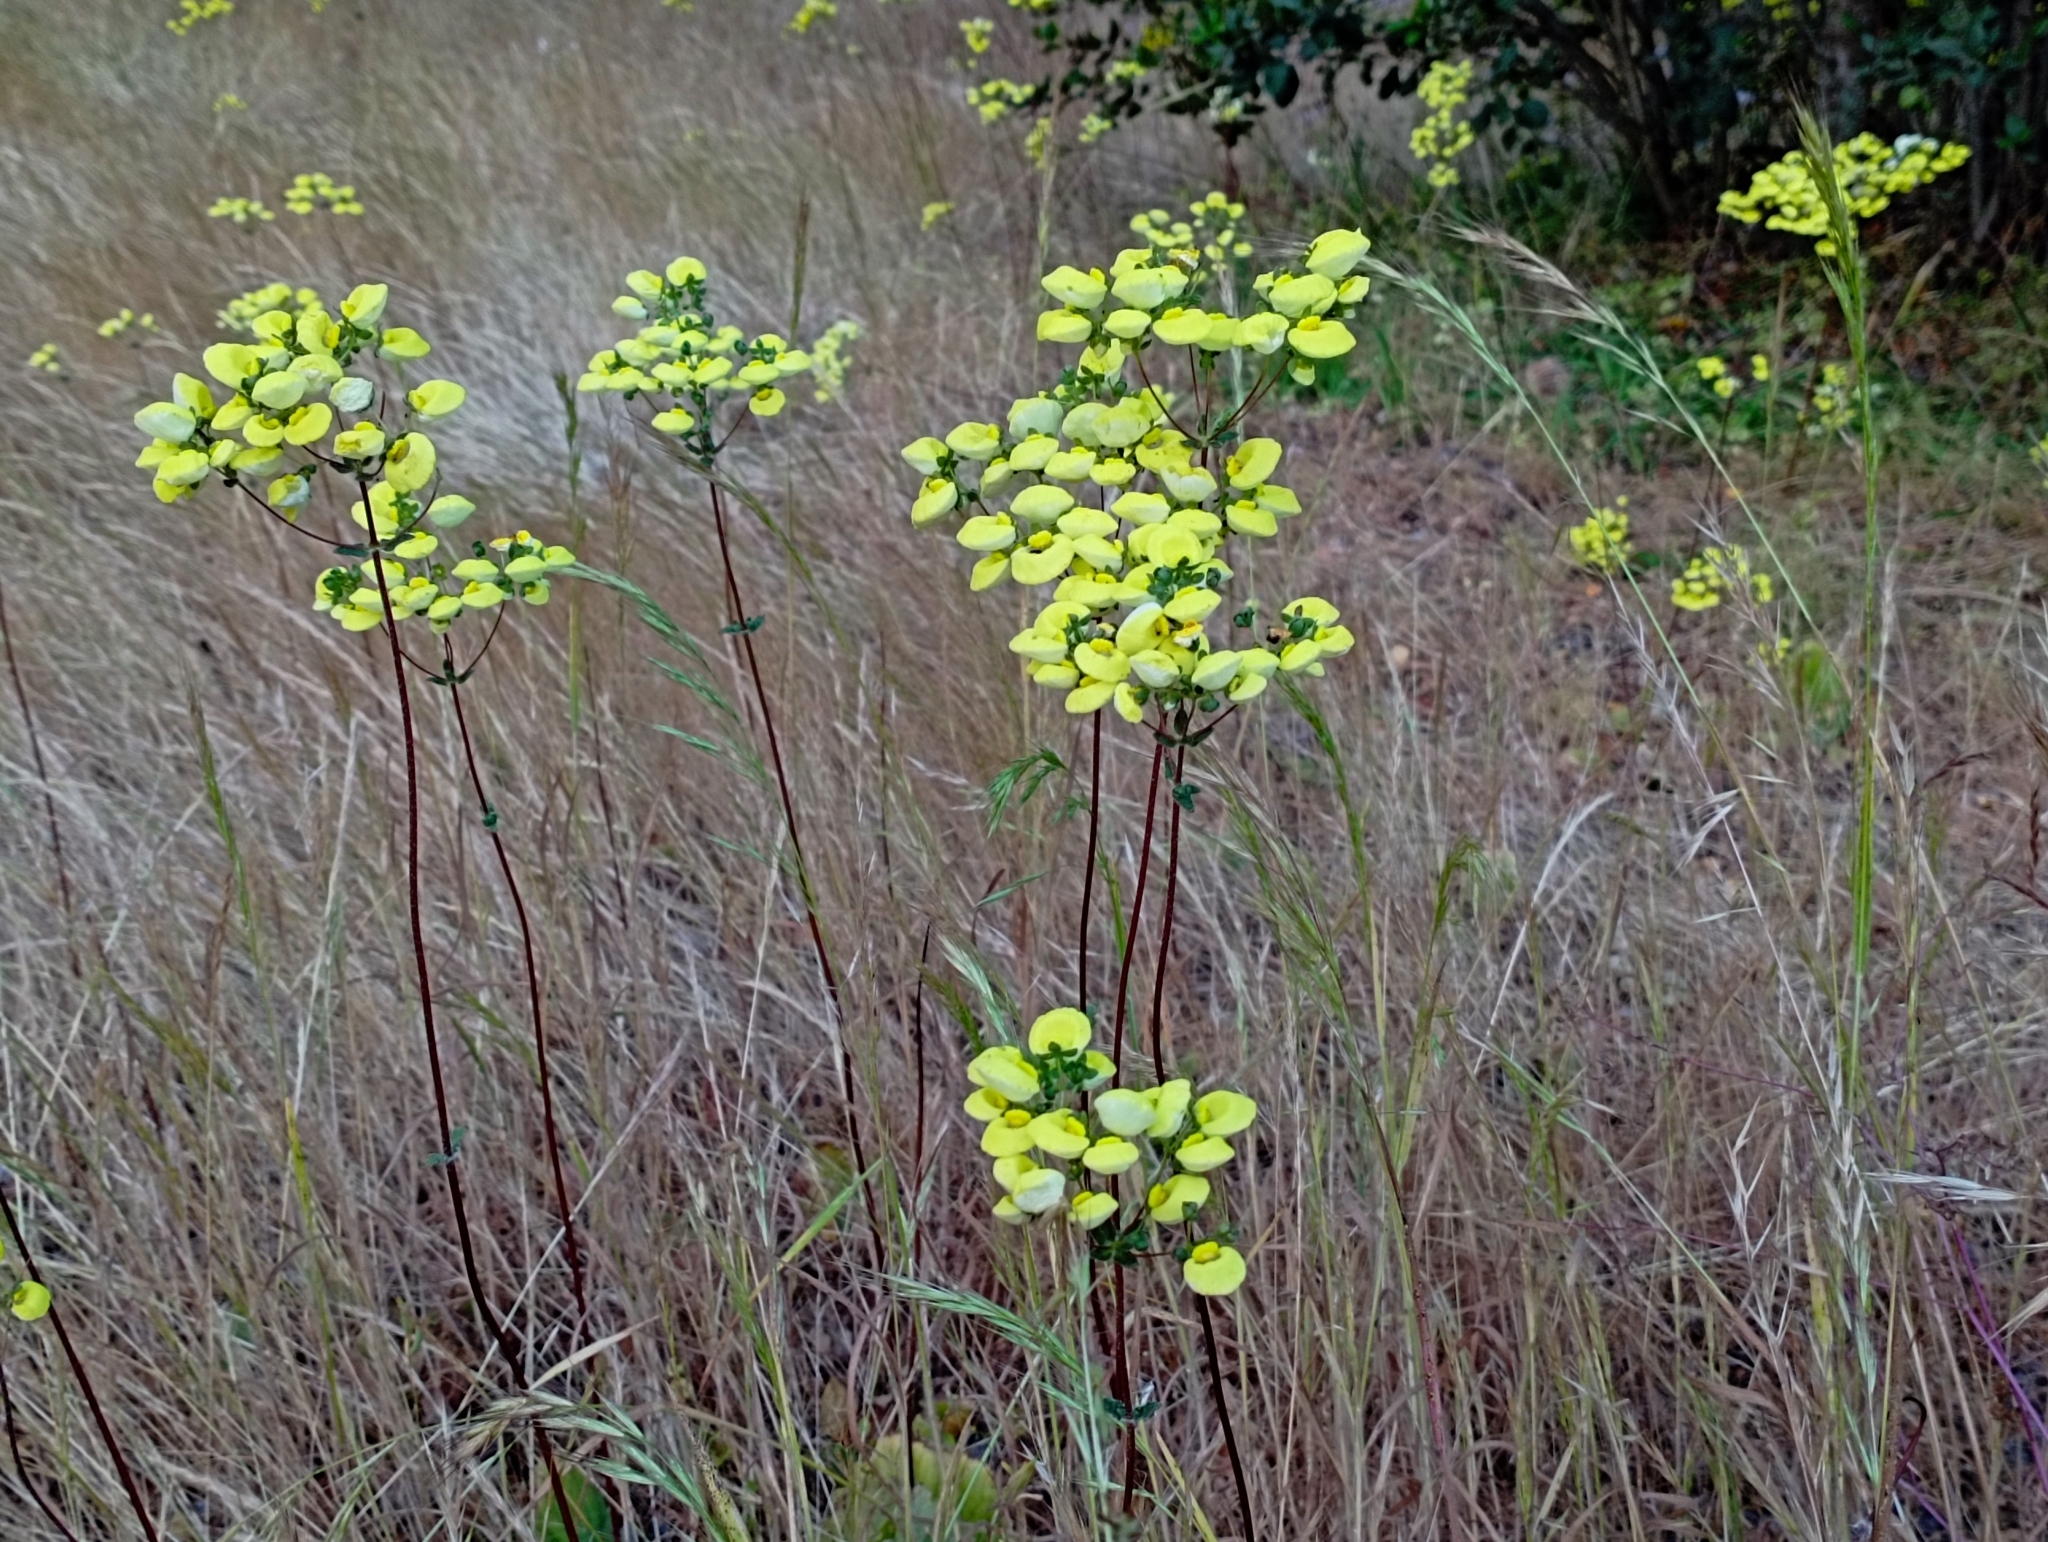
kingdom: Plantae
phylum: Tracheophyta
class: Magnoliopsida
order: Lamiales
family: Calceolariaceae
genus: Calceolaria
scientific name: Calceolaria nudicaulis
